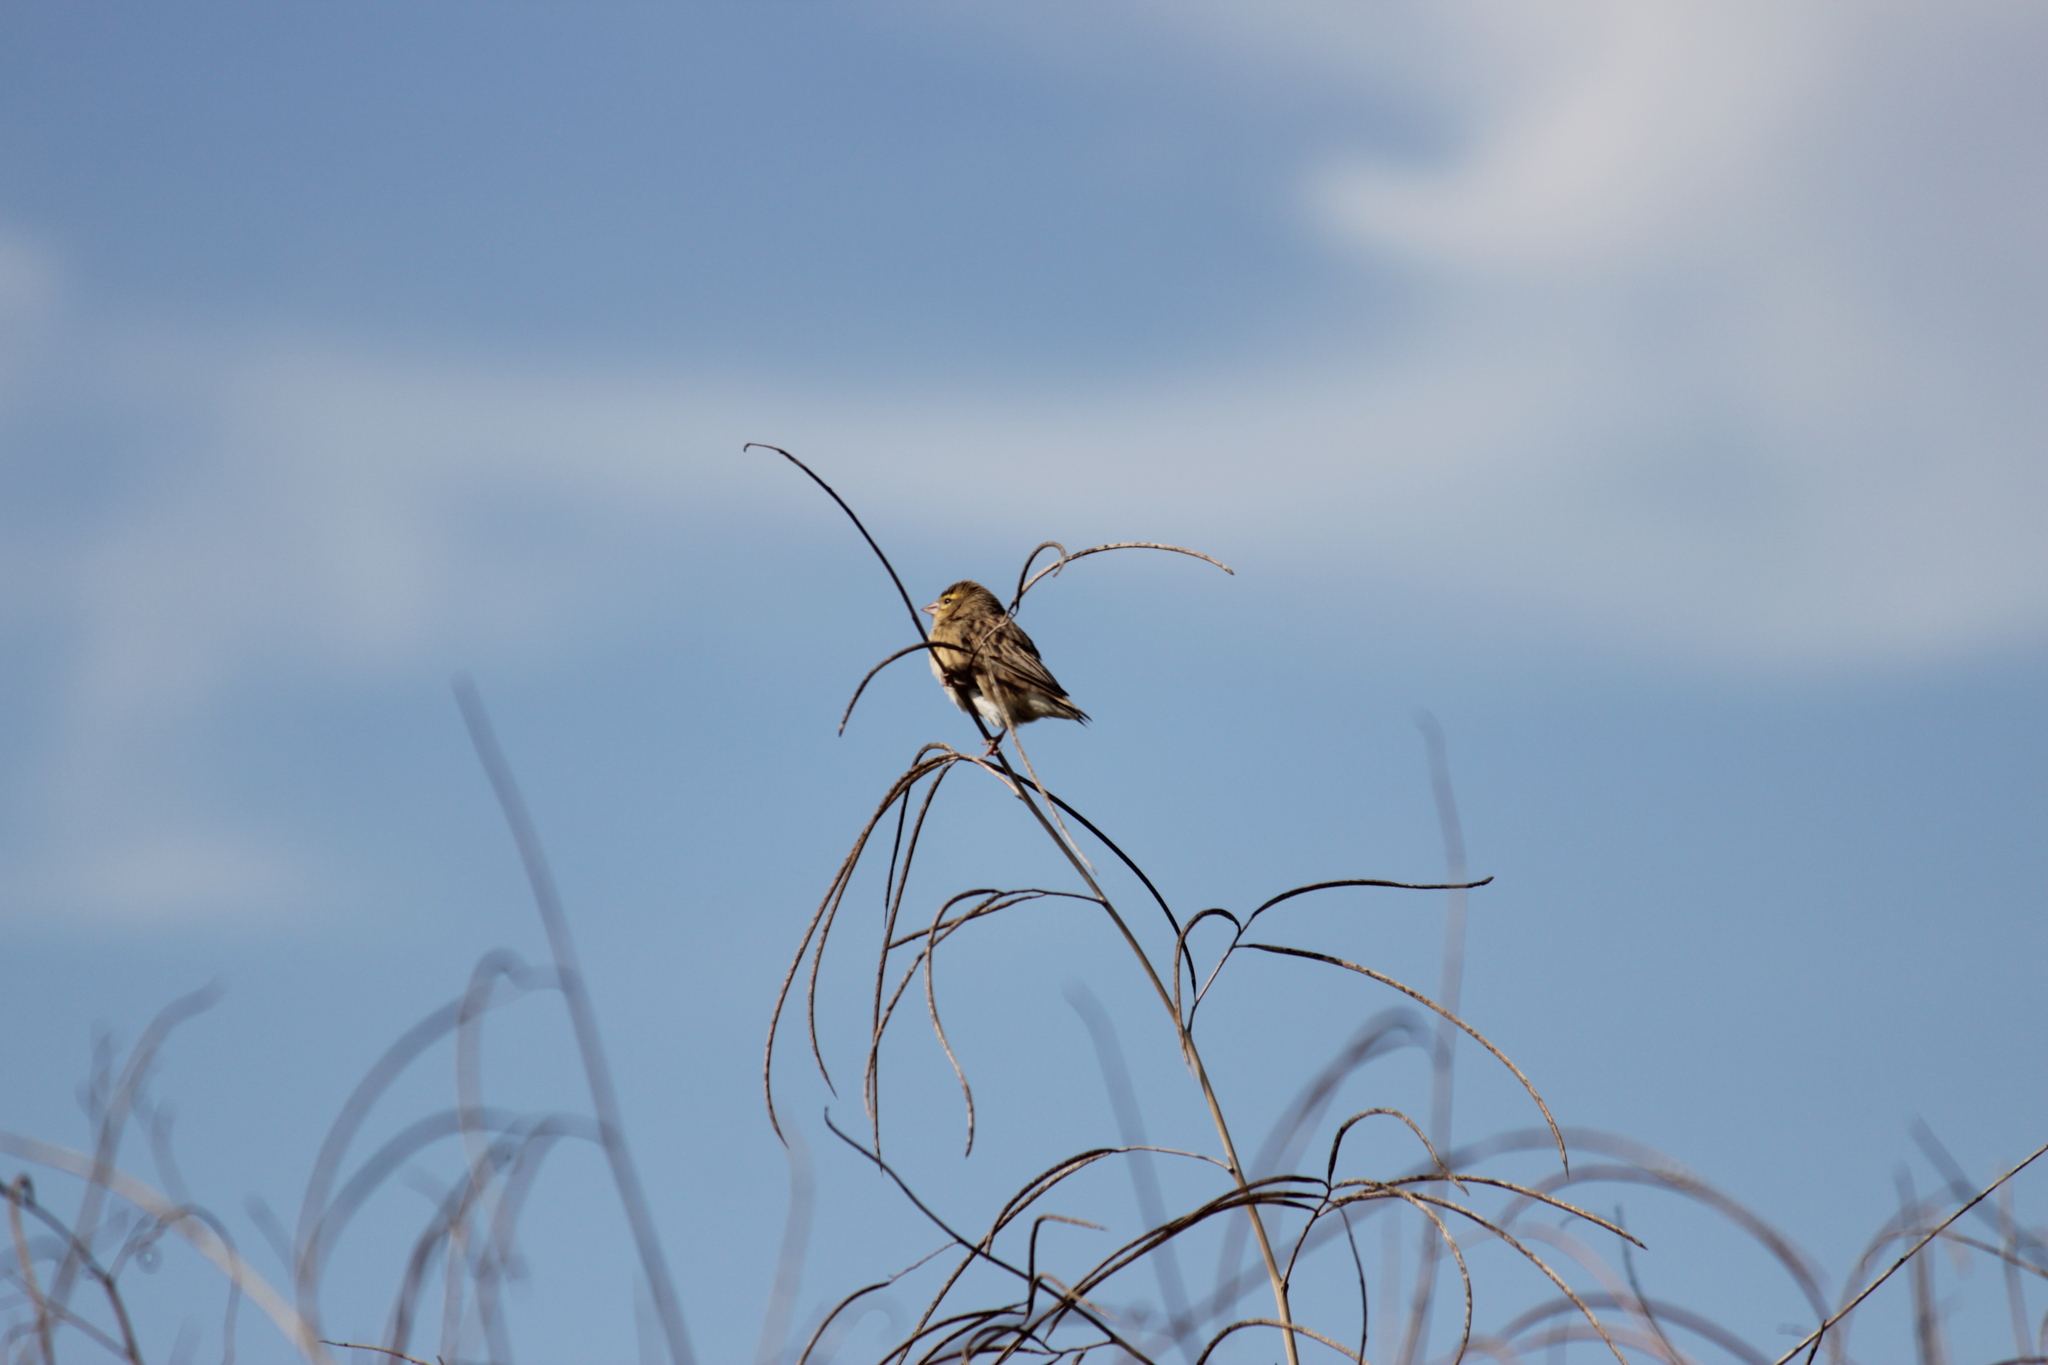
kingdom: Animalia
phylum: Chordata
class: Aves
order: Passeriformes
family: Ploceidae
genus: Euplectes
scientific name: Euplectes orix
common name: Southern red bishop
